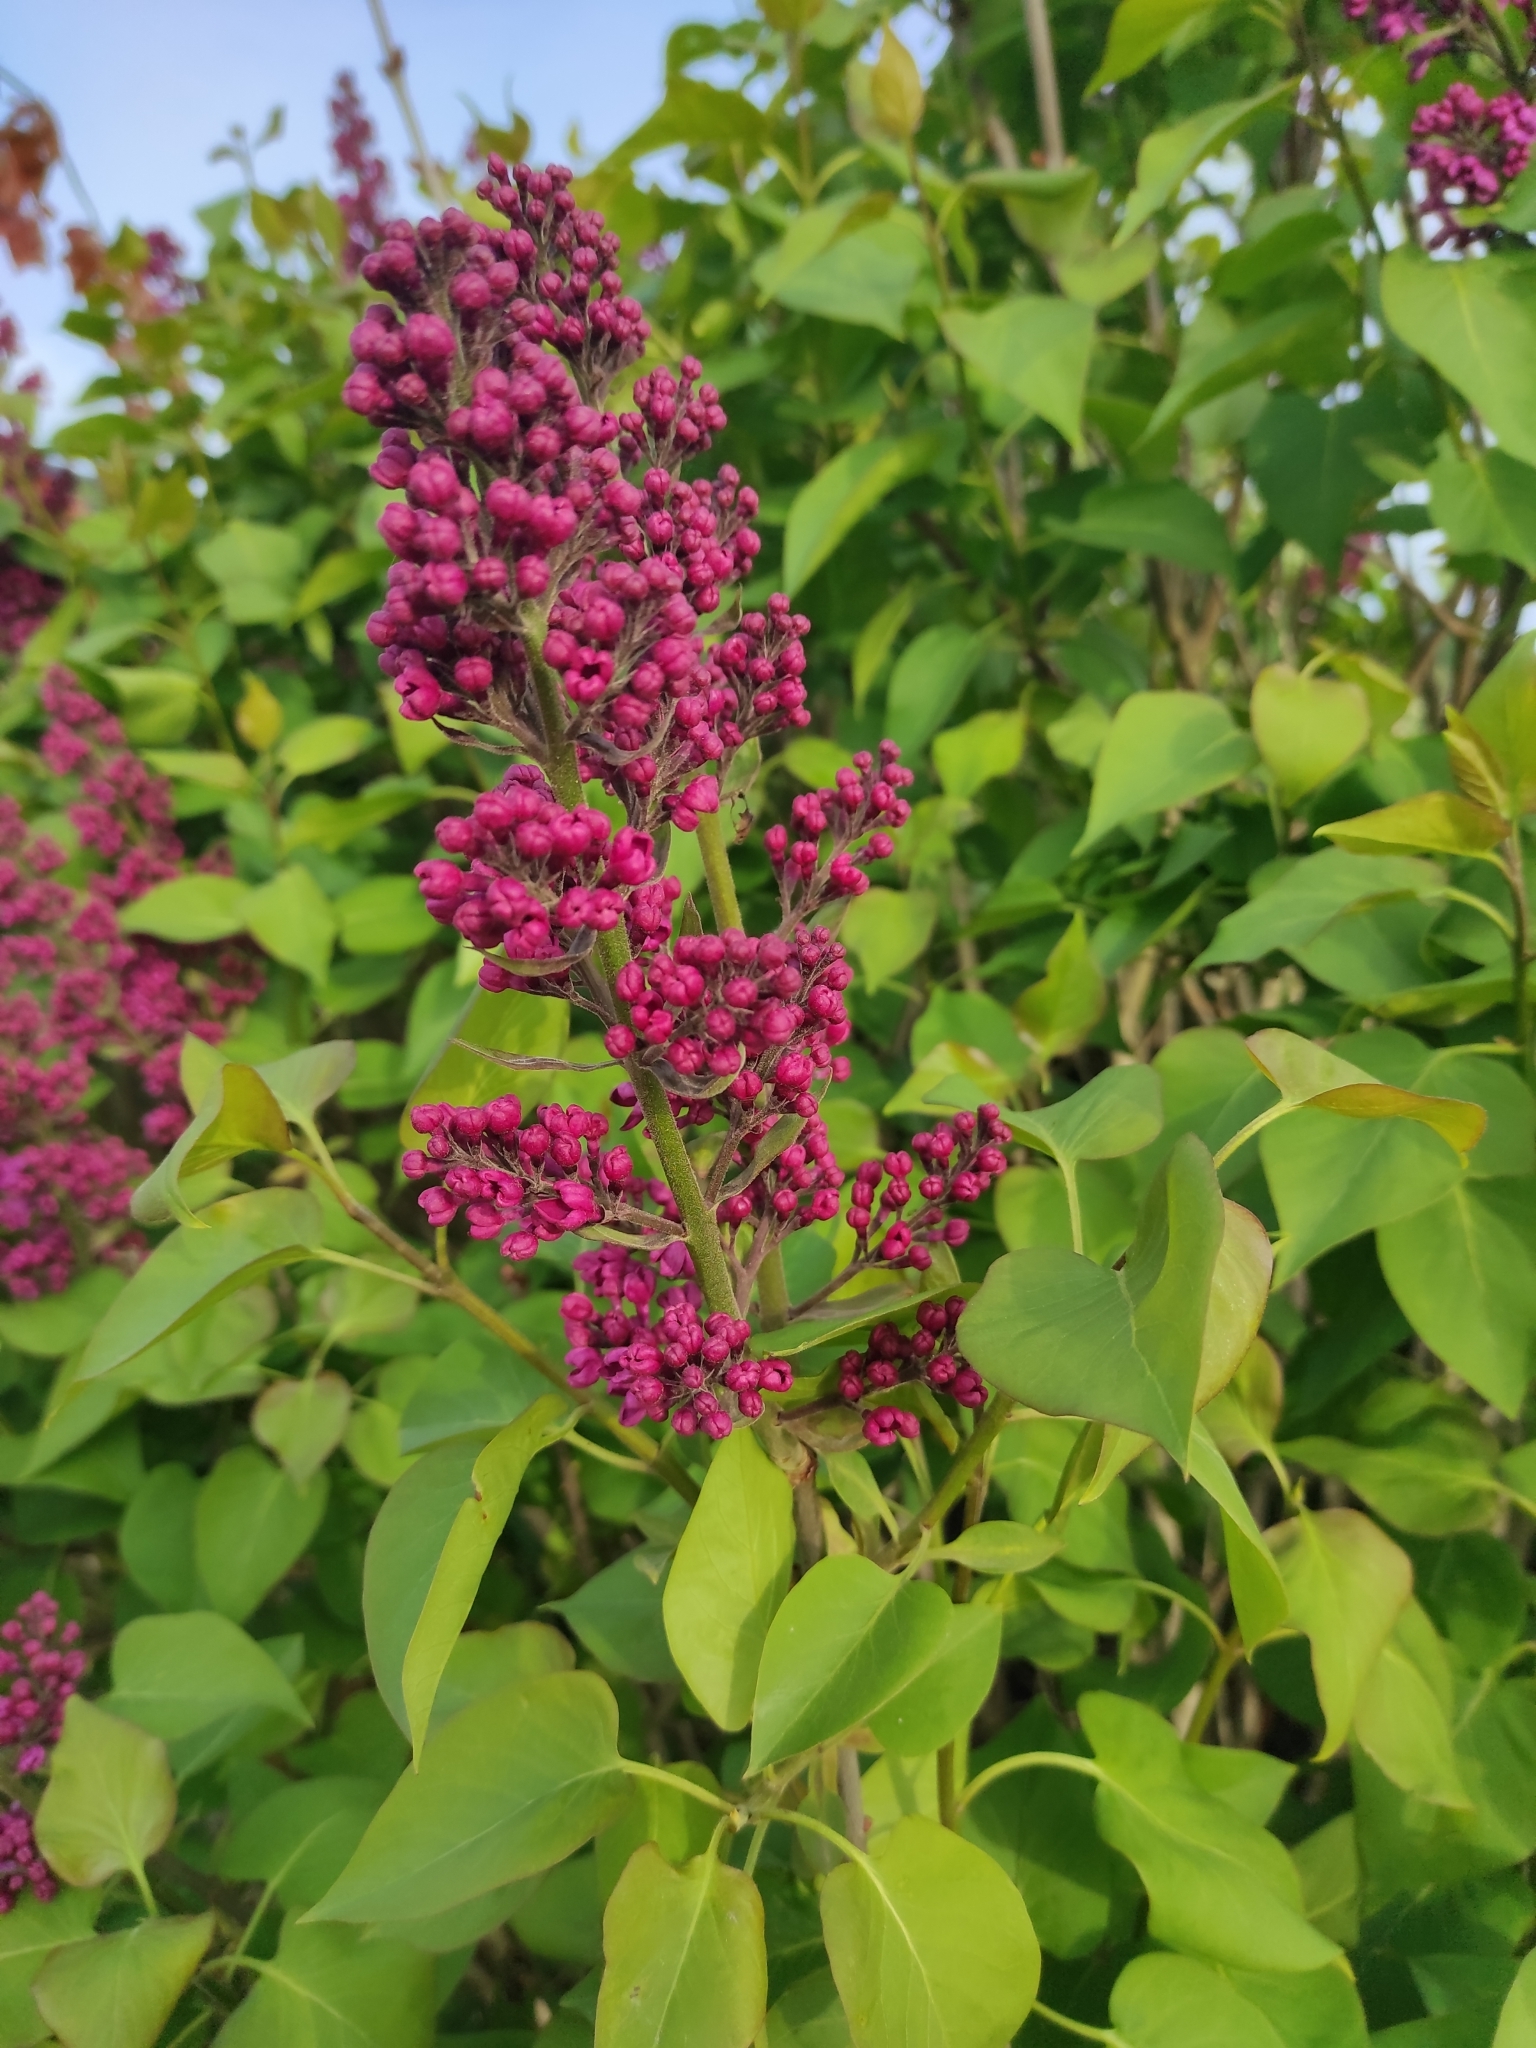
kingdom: Plantae
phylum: Tracheophyta
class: Magnoliopsida
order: Lamiales
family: Oleaceae
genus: Syringa
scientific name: Syringa vulgaris
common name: Common lilac
